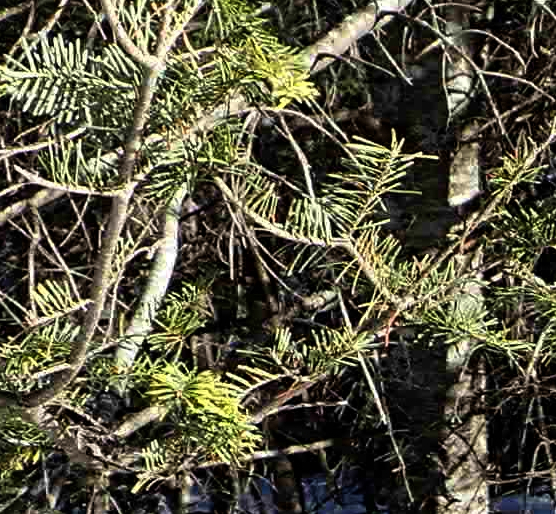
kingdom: Plantae
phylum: Tracheophyta
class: Pinopsida
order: Pinales
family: Pinaceae
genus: Abies
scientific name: Abies balsamea
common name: Balsam fir
